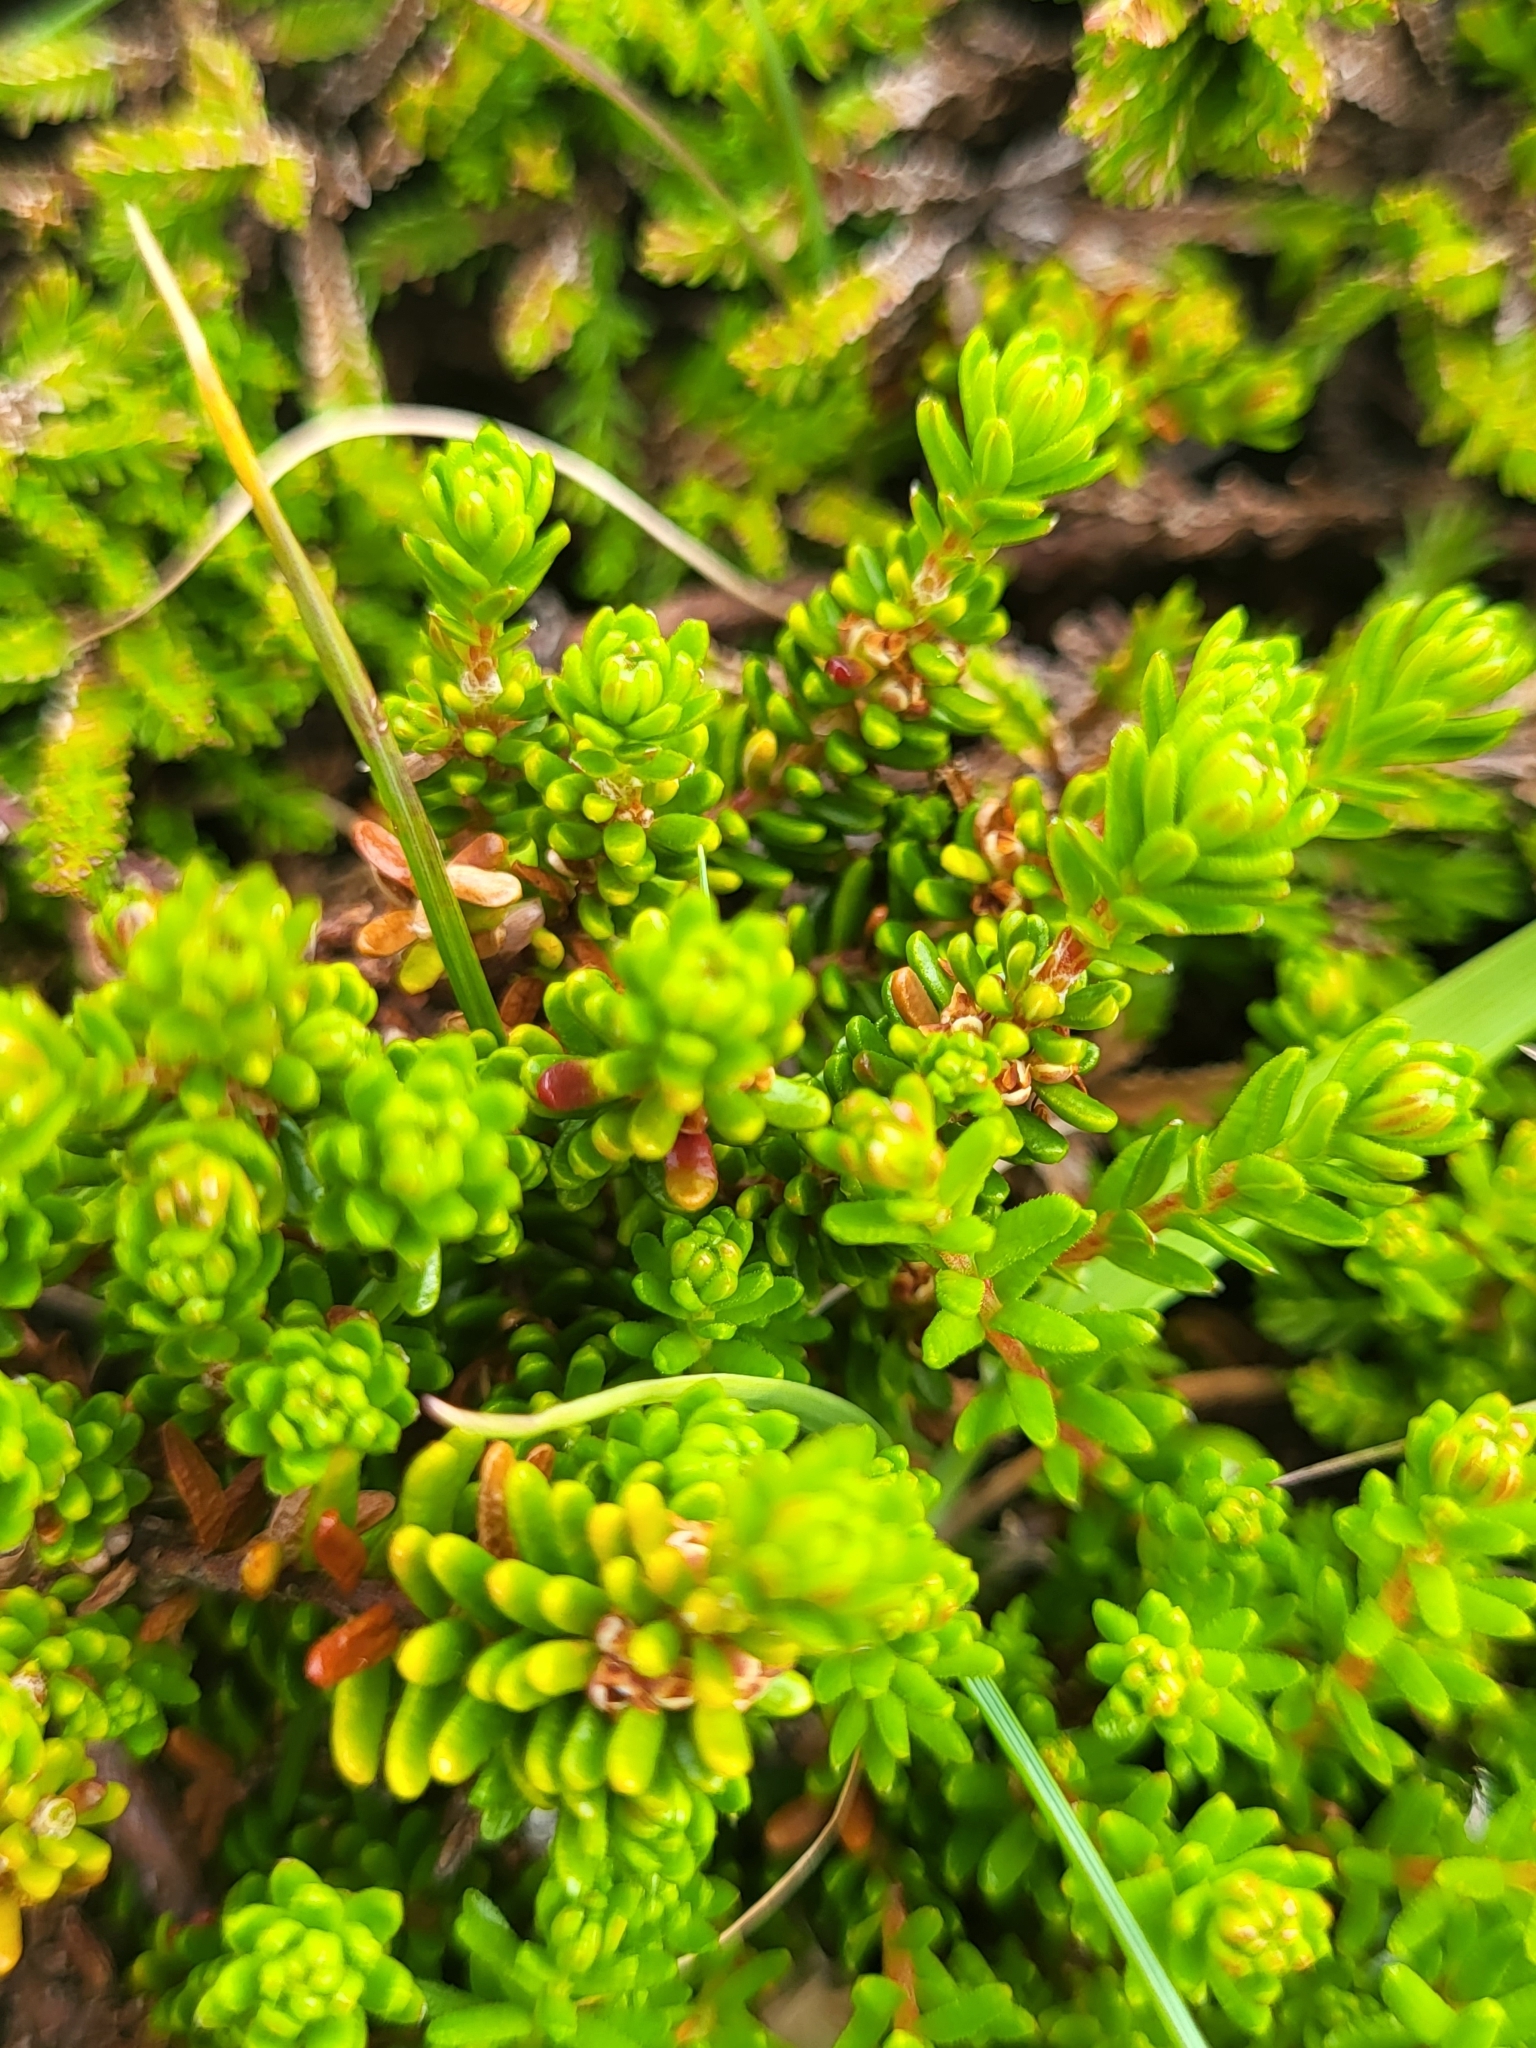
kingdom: Plantae
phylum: Tracheophyta
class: Magnoliopsida
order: Ericales
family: Ericaceae
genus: Empetrum
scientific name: Empetrum nigrum
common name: Black crowberry
